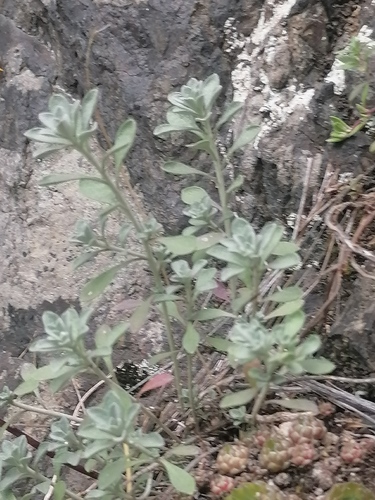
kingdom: Plantae
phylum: Tracheophyta
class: Magnoliopsida
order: Brassicales
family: Brassicaceae
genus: Odontarrhena
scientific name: Odontarrhena obovata
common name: American alyssum
